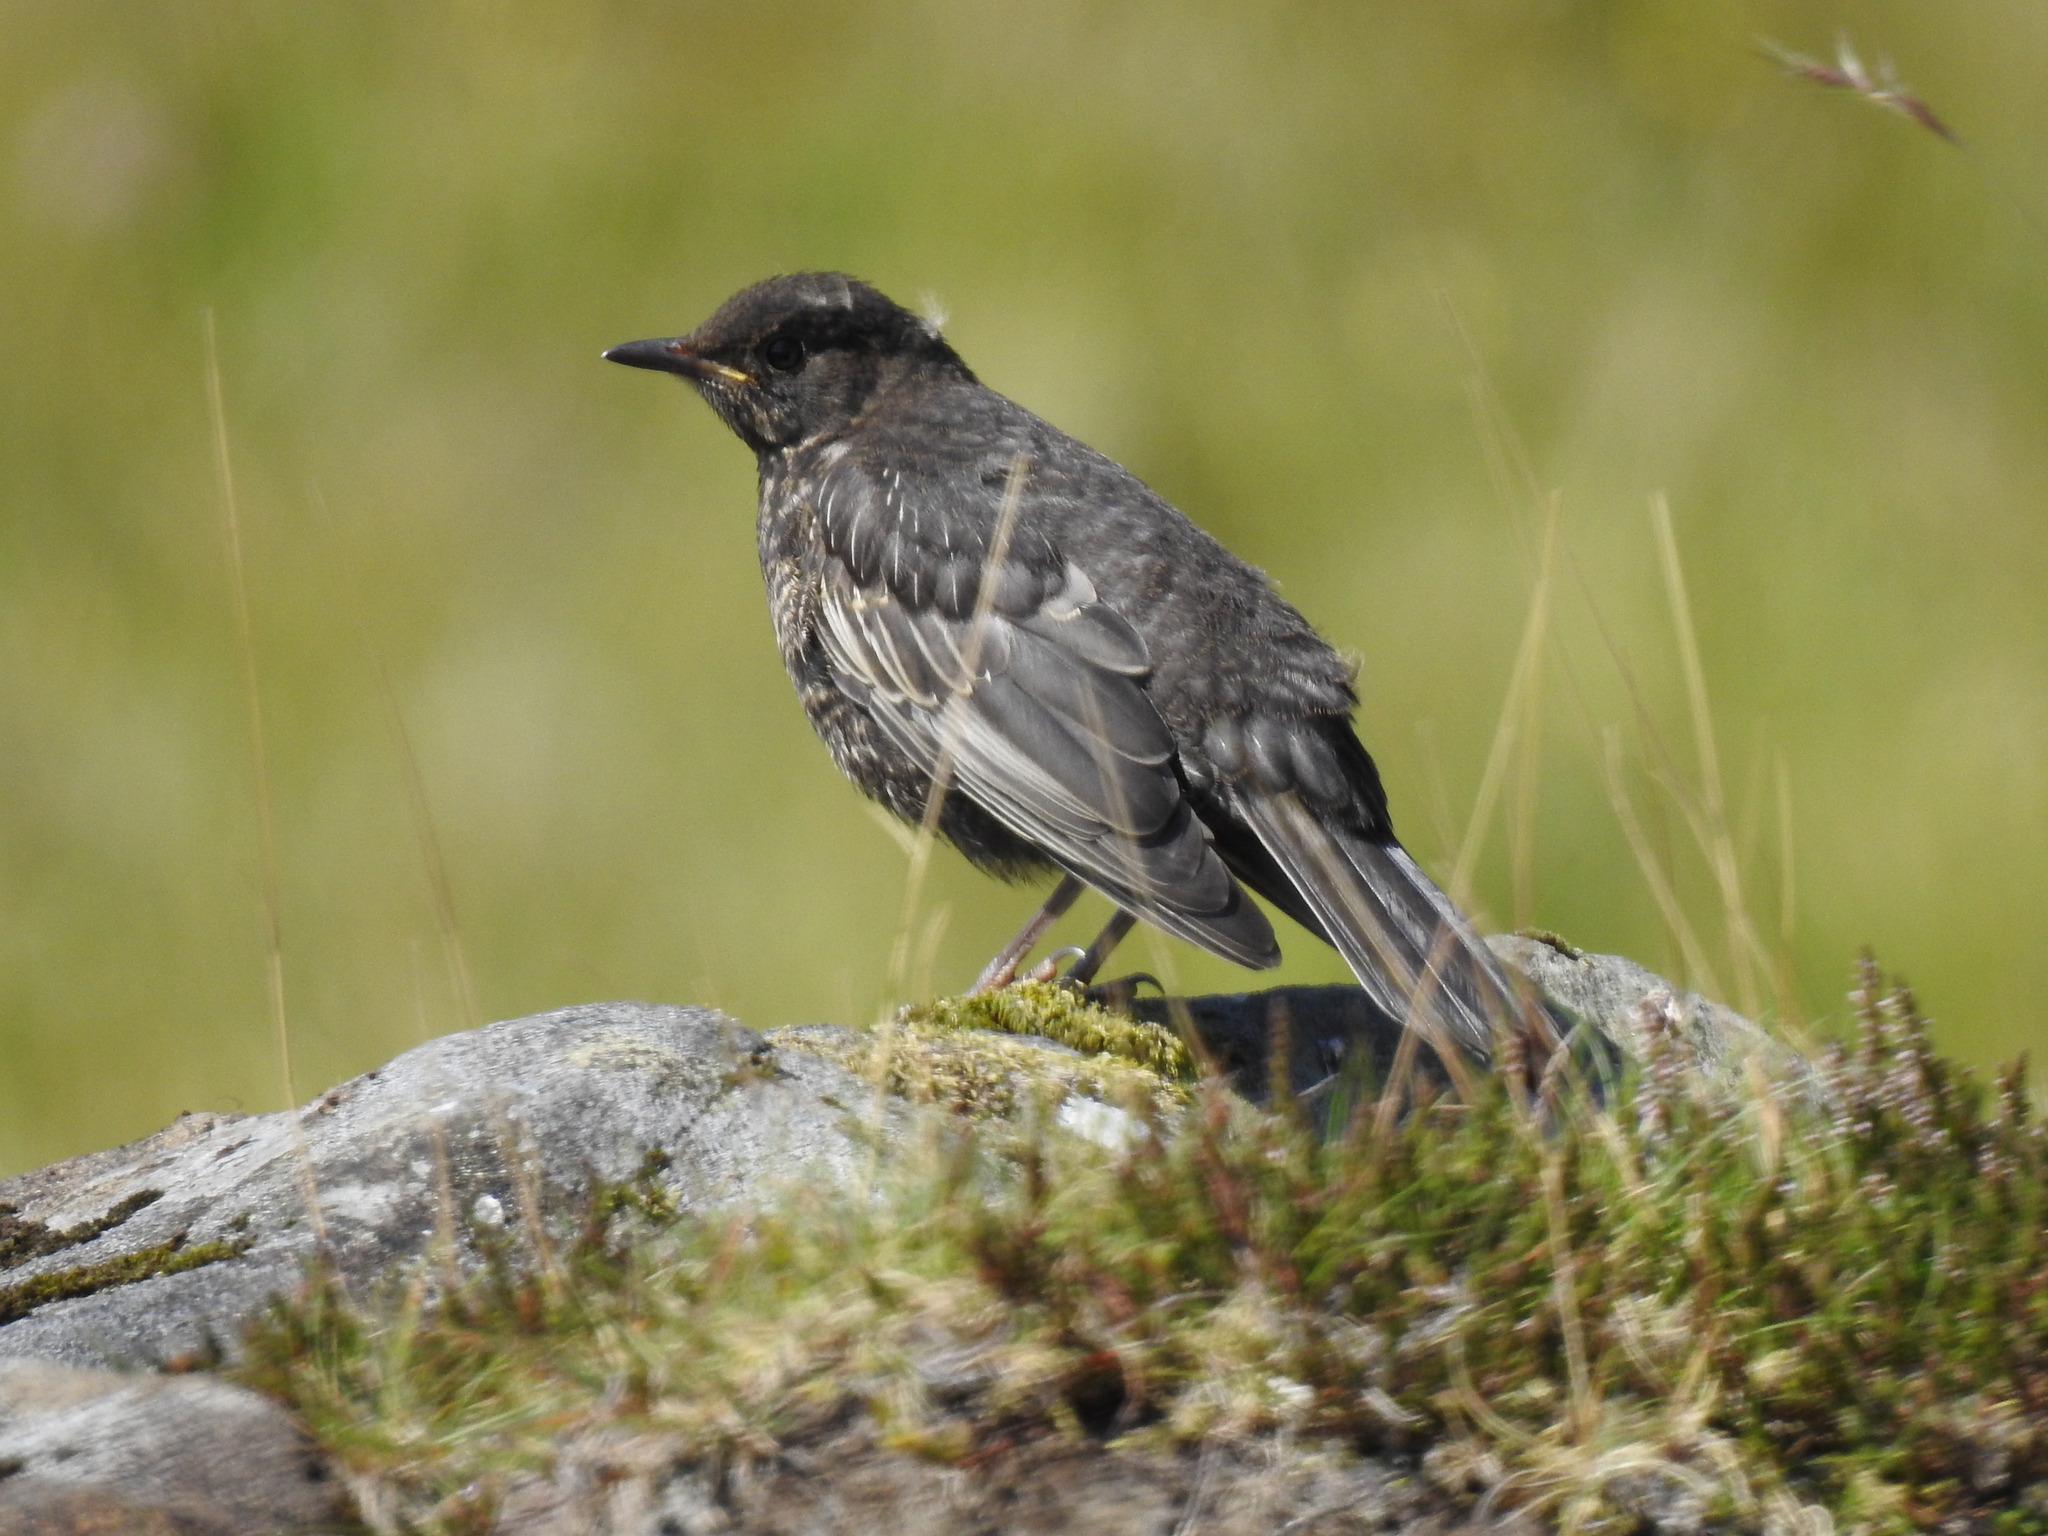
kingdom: Animalia
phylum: Chordata
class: Aves
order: Passeriformes
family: Turdidae
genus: Turdus
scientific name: Turdus merula
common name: Common blackbird
